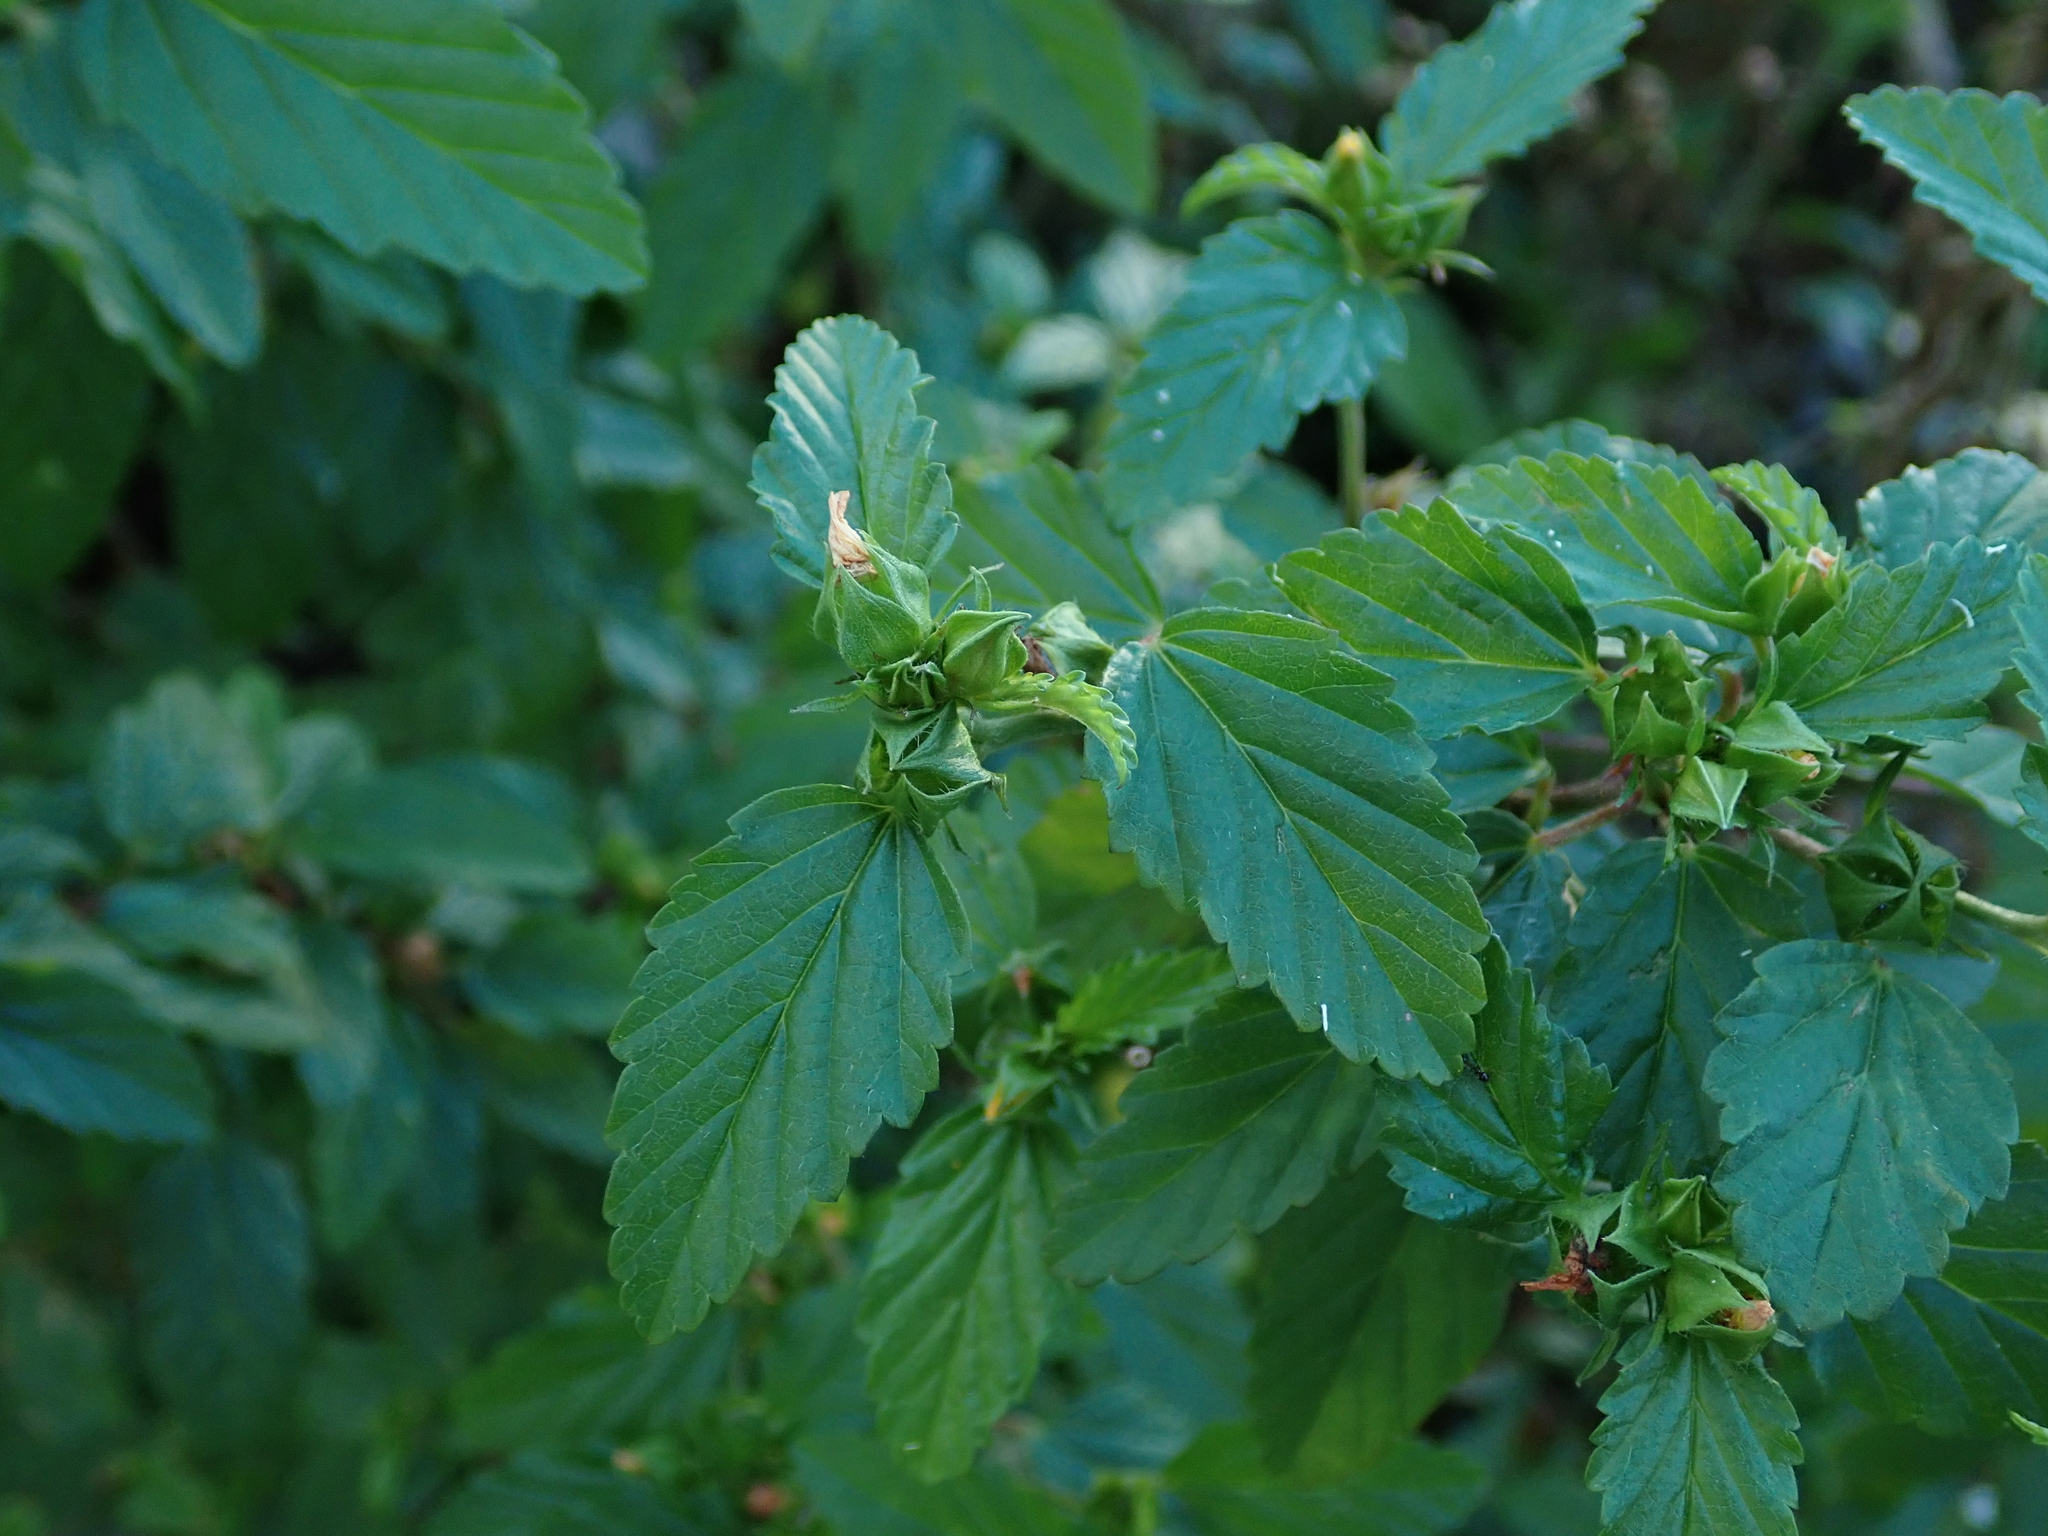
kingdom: Plantae
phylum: Tracheophyta
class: Magnoliopsida
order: Malvales
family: Malvaceae
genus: Malvastrum
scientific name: Malvastrum coromandelianum
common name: Threelobe false mallow
